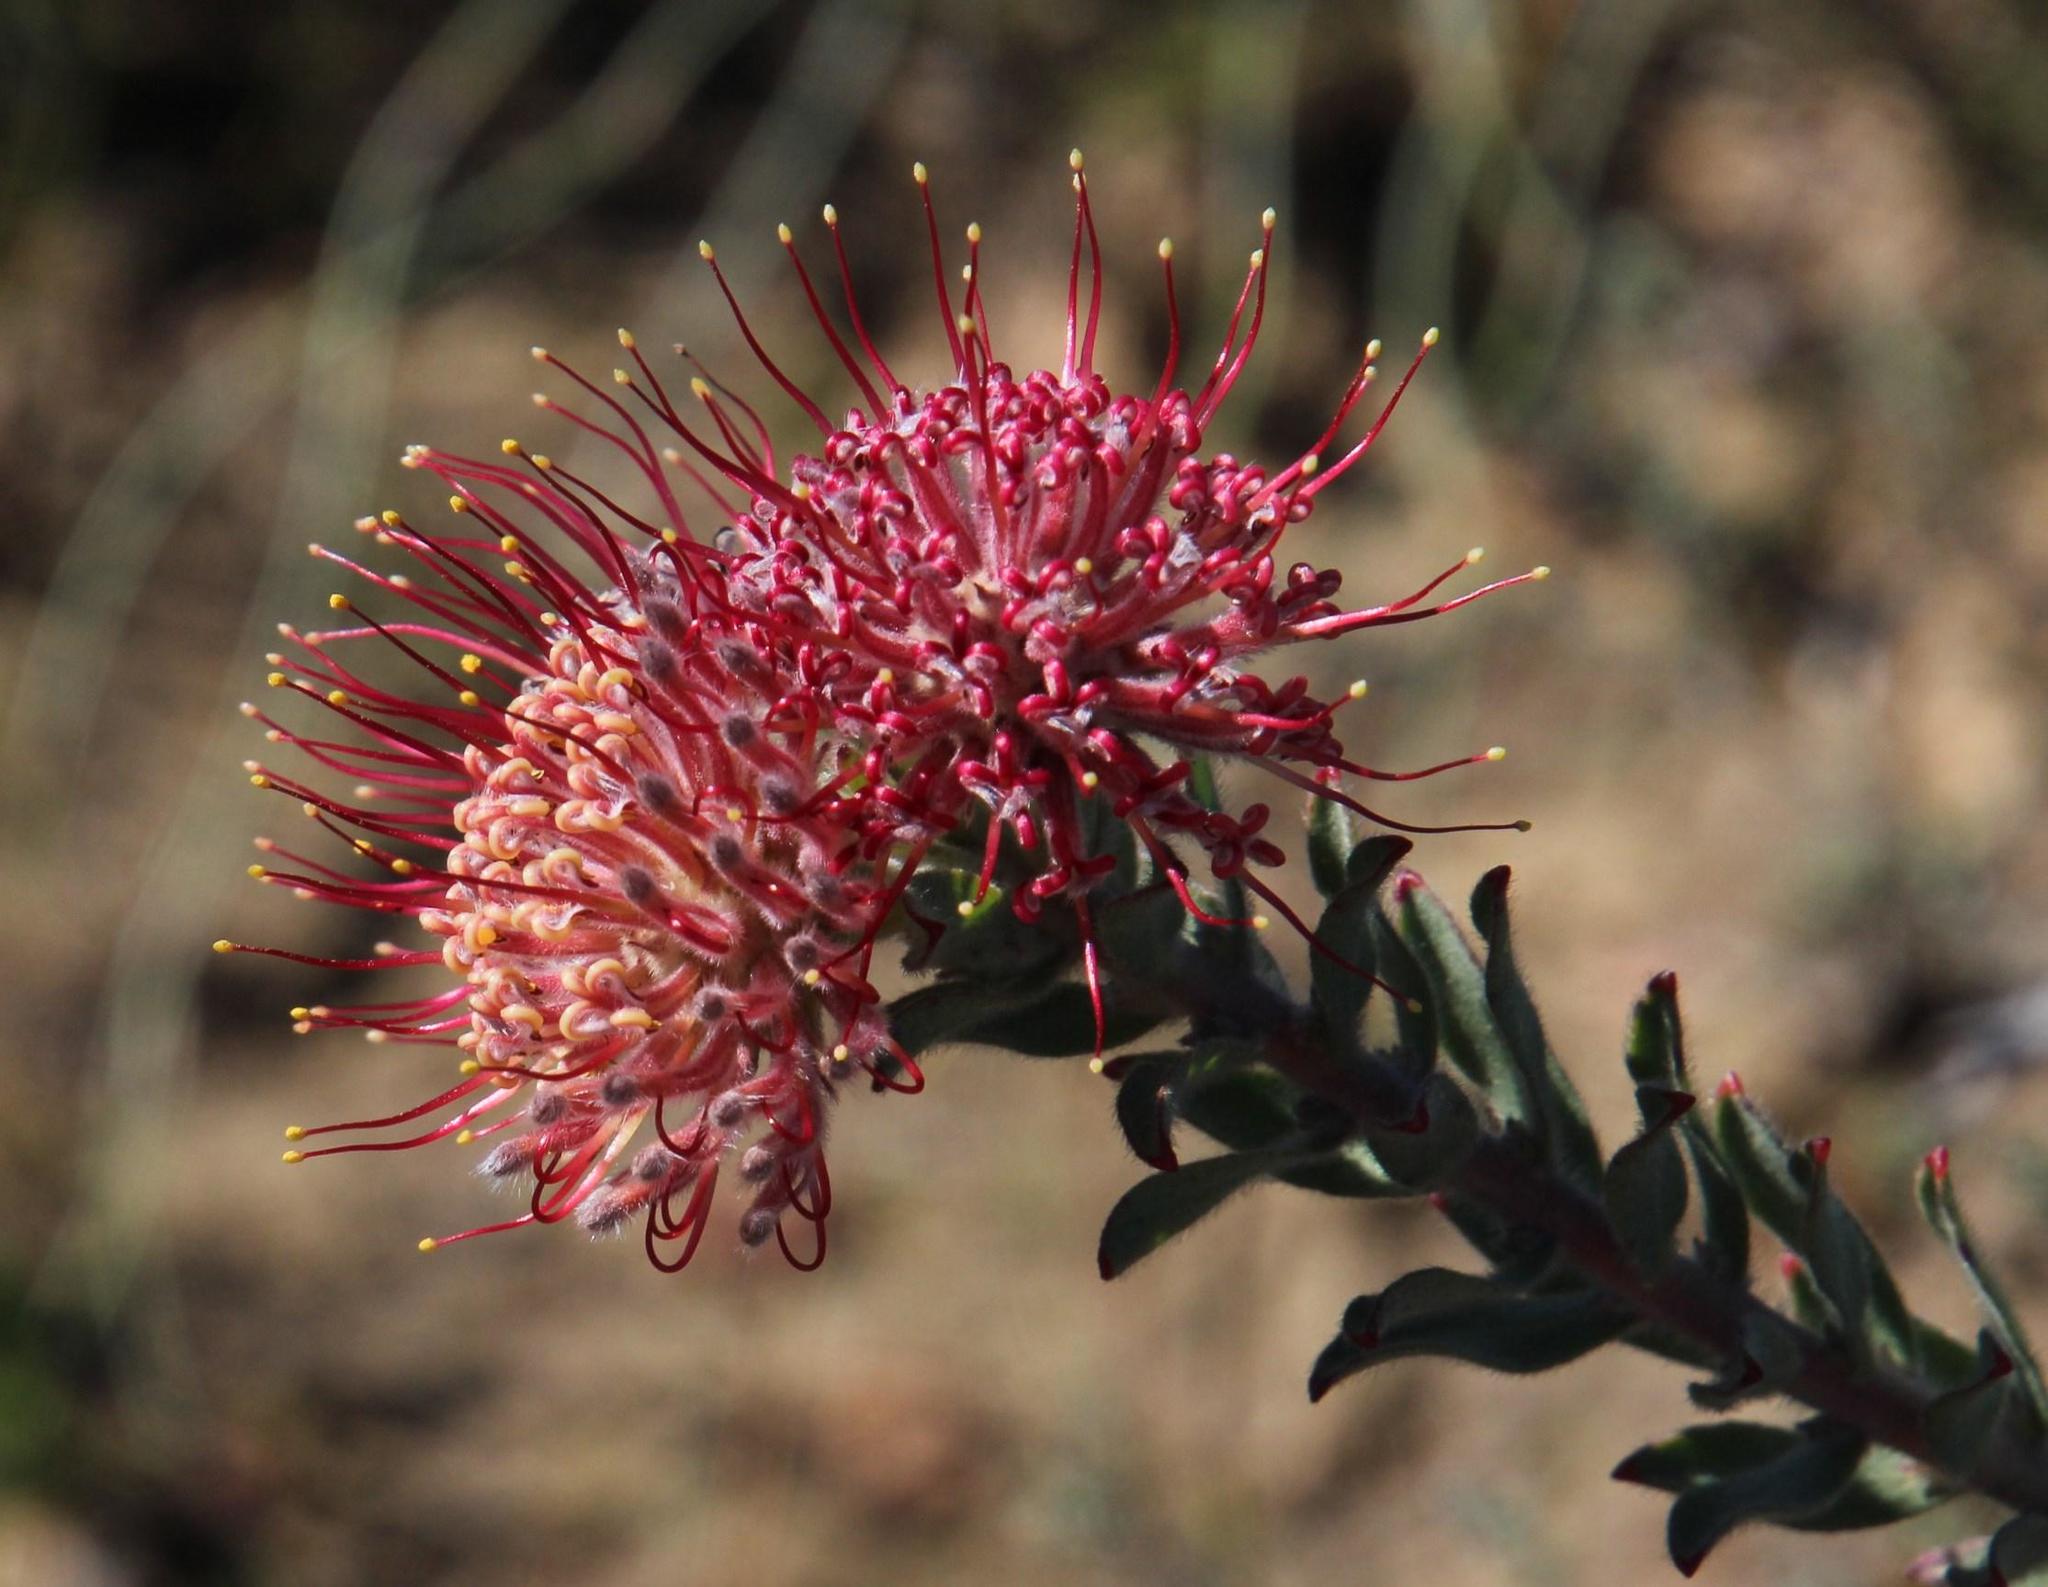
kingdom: Plantae
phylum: Tracheophyta
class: Magnoliopsida
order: Proteales
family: Proteaceae
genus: Leucospermum
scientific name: Leucospermum calligerum
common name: Arid pincushion
